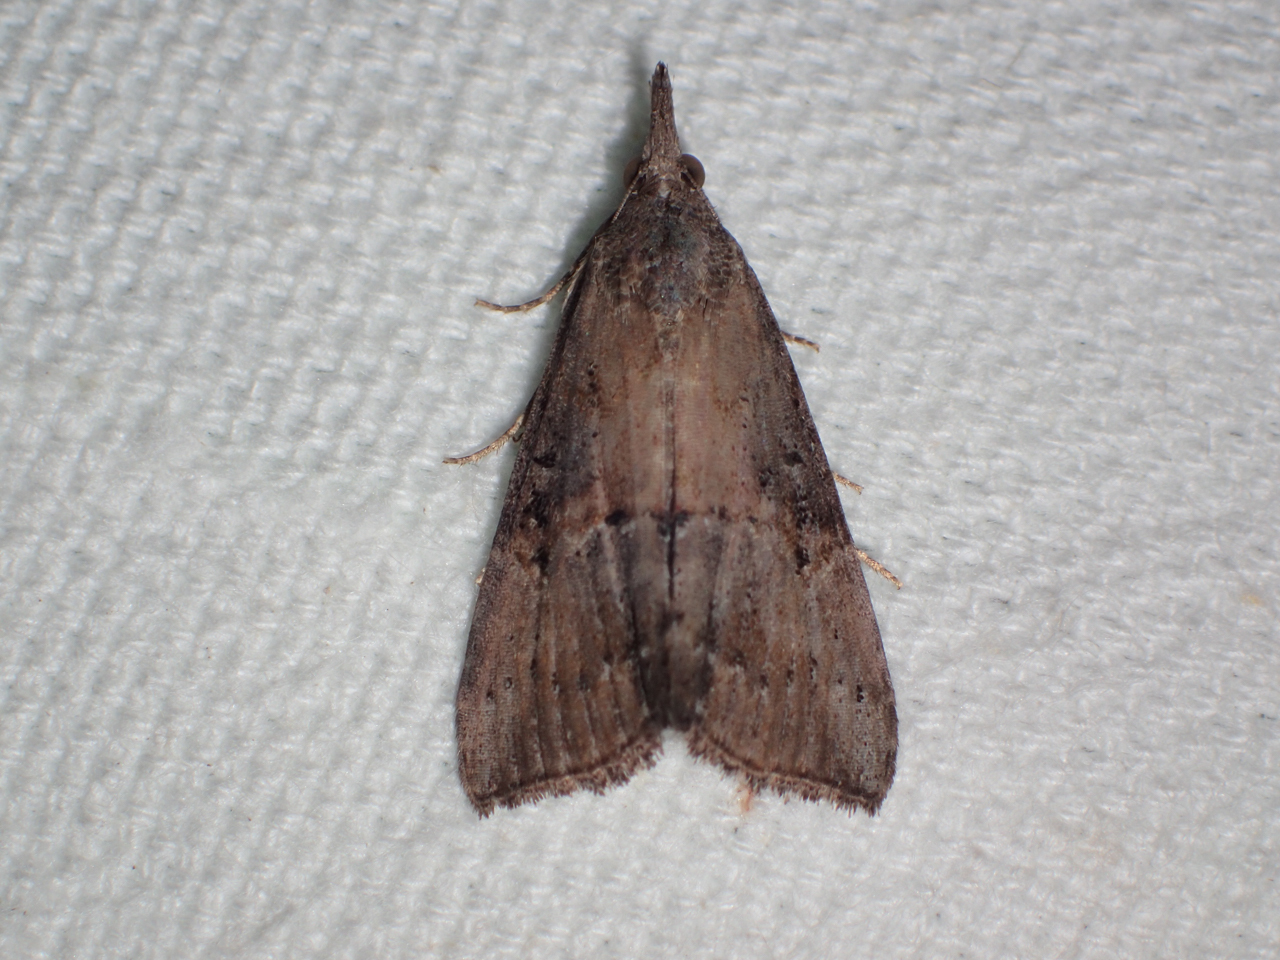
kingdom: Animalia
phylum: Arthropoda
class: Insecta
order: Lepidoptera
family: Erebidae
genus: Hypena
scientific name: Hypena scabra
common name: Green cloverworm
